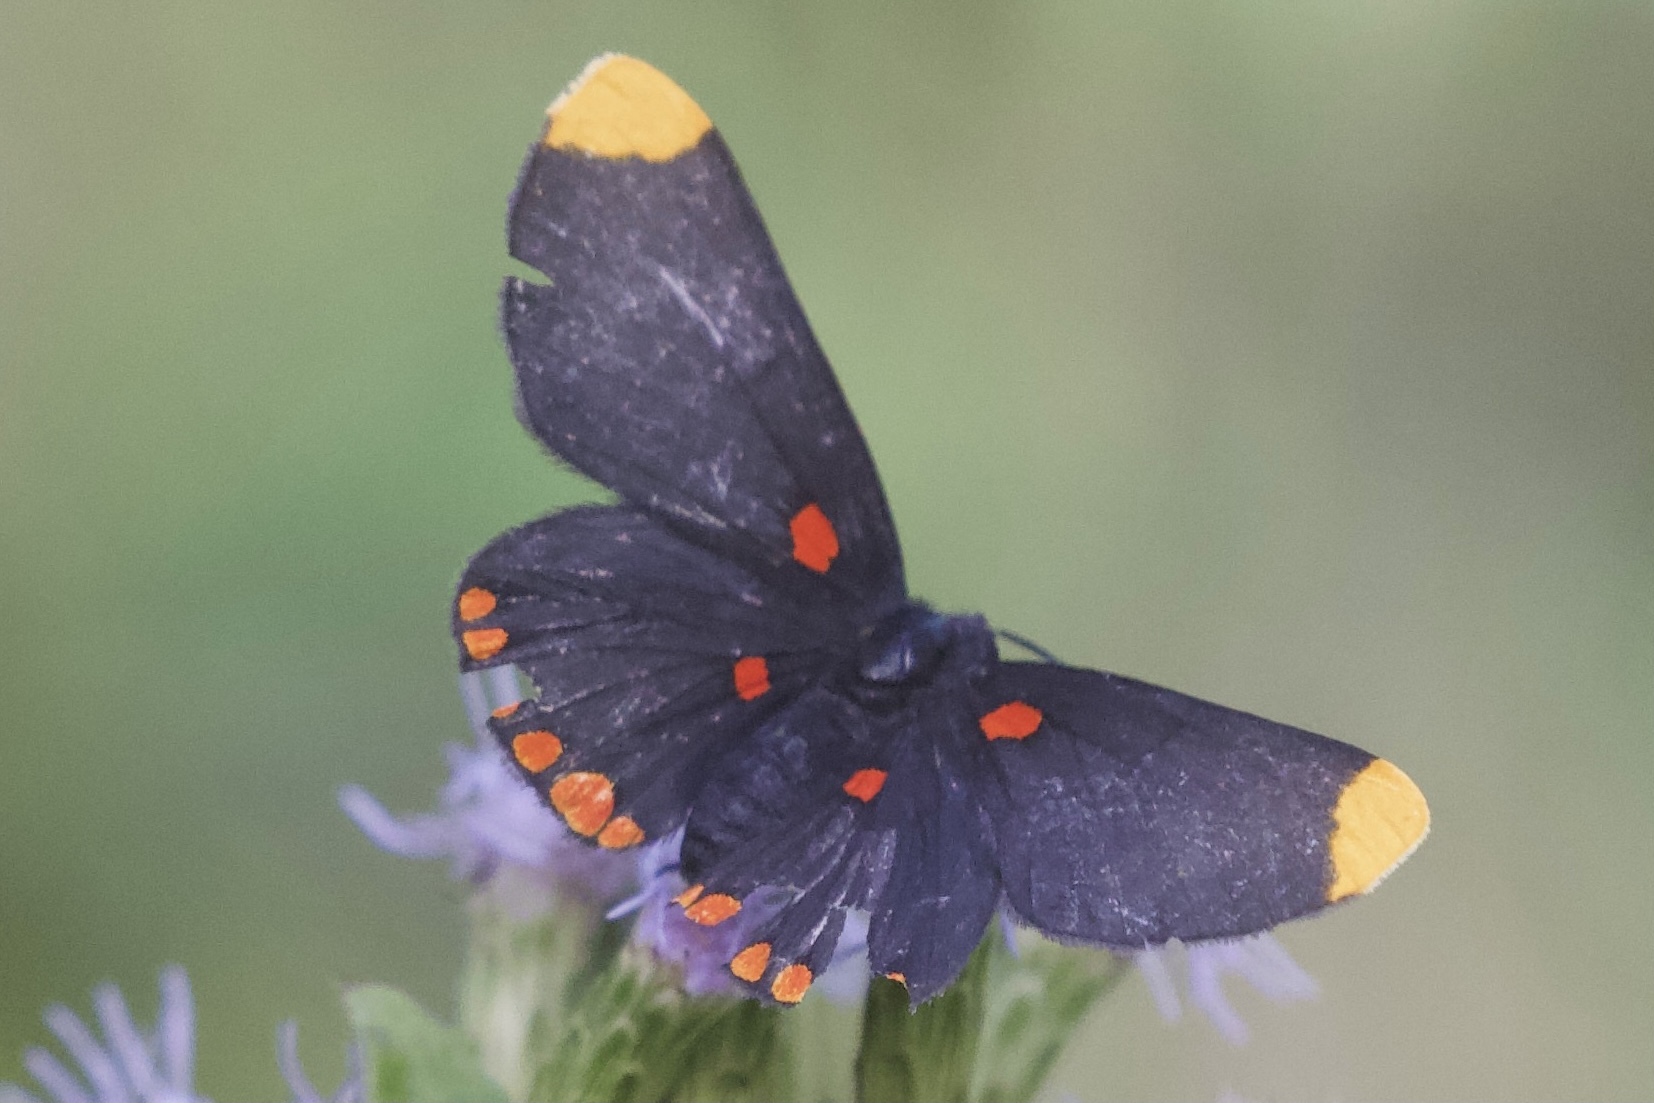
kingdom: Animalia
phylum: Arthropoda
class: Insecta
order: Lepidoptera
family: Lycaenidae
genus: Melanis
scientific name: Melanis pixe
